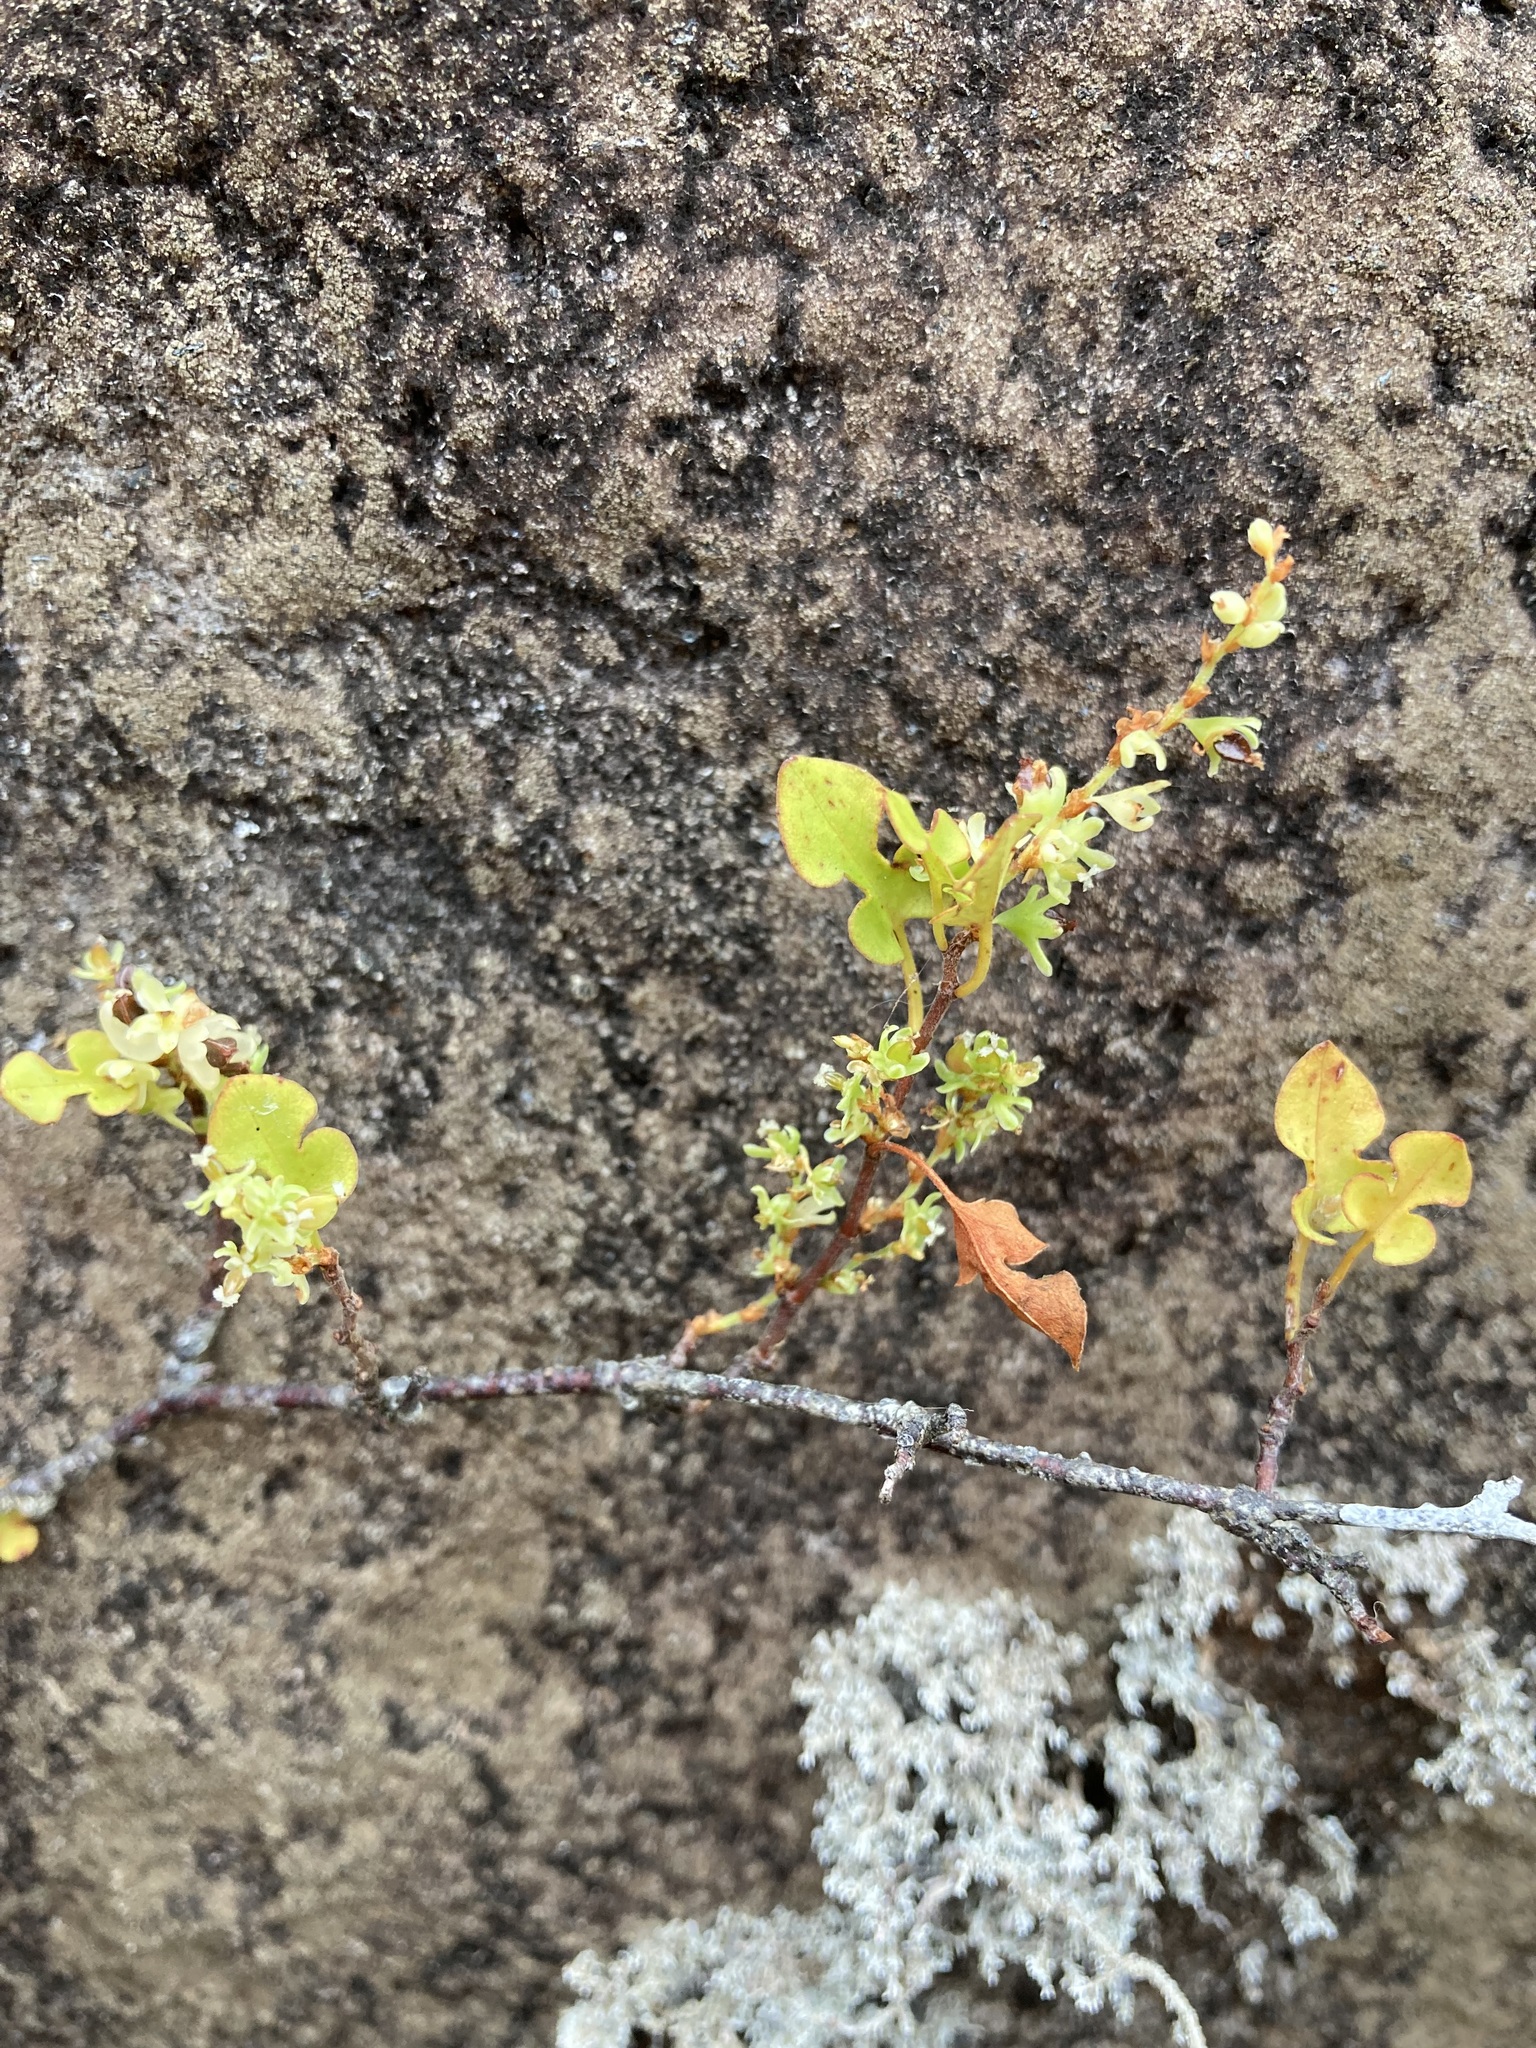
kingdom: Plantae
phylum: Tracheophyta
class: Magnoliopsida
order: Caryophyllales
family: Polygonaceae
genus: Muehlenbeckia
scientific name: Muehlenbeckia australis
